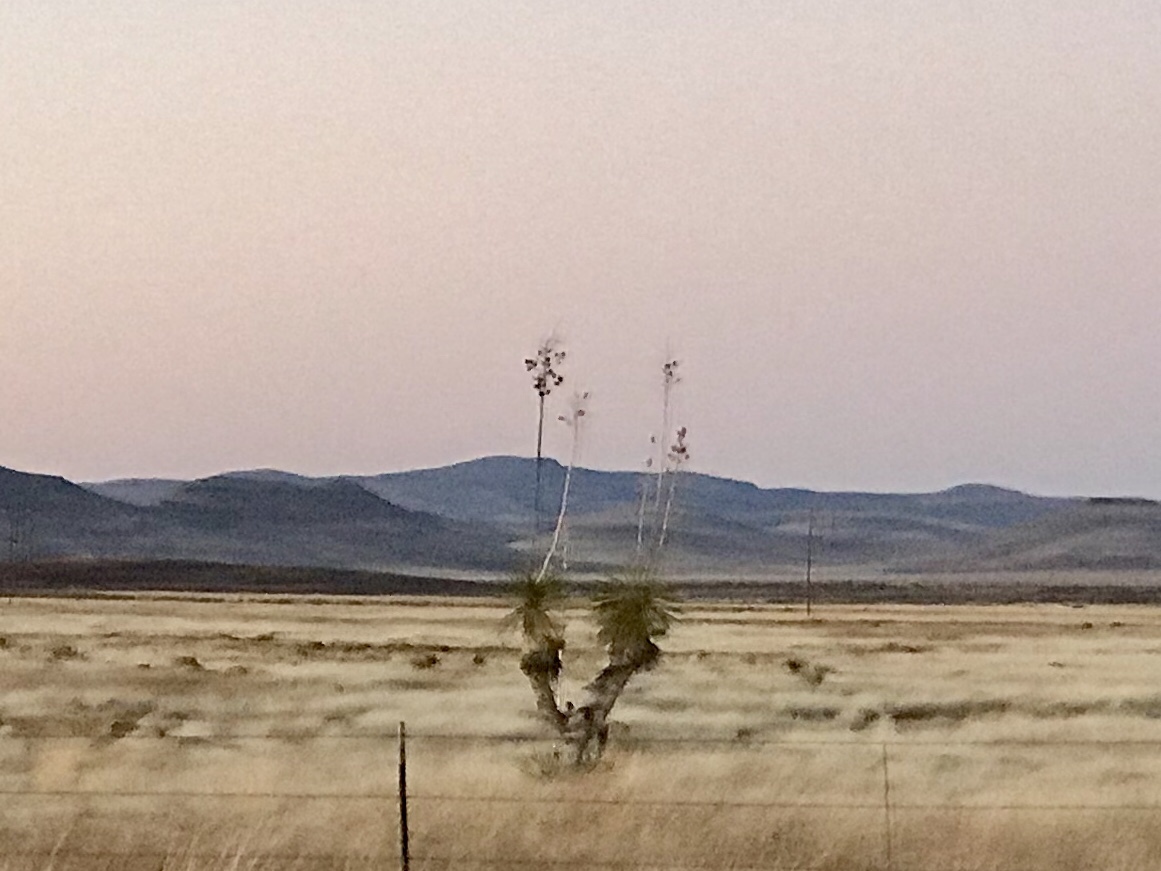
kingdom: Plantae
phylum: Tracheophyta
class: Liliopsida
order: Asparagales
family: Asparagaceae
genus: Yucca
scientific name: Yucca elata
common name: Palmella
